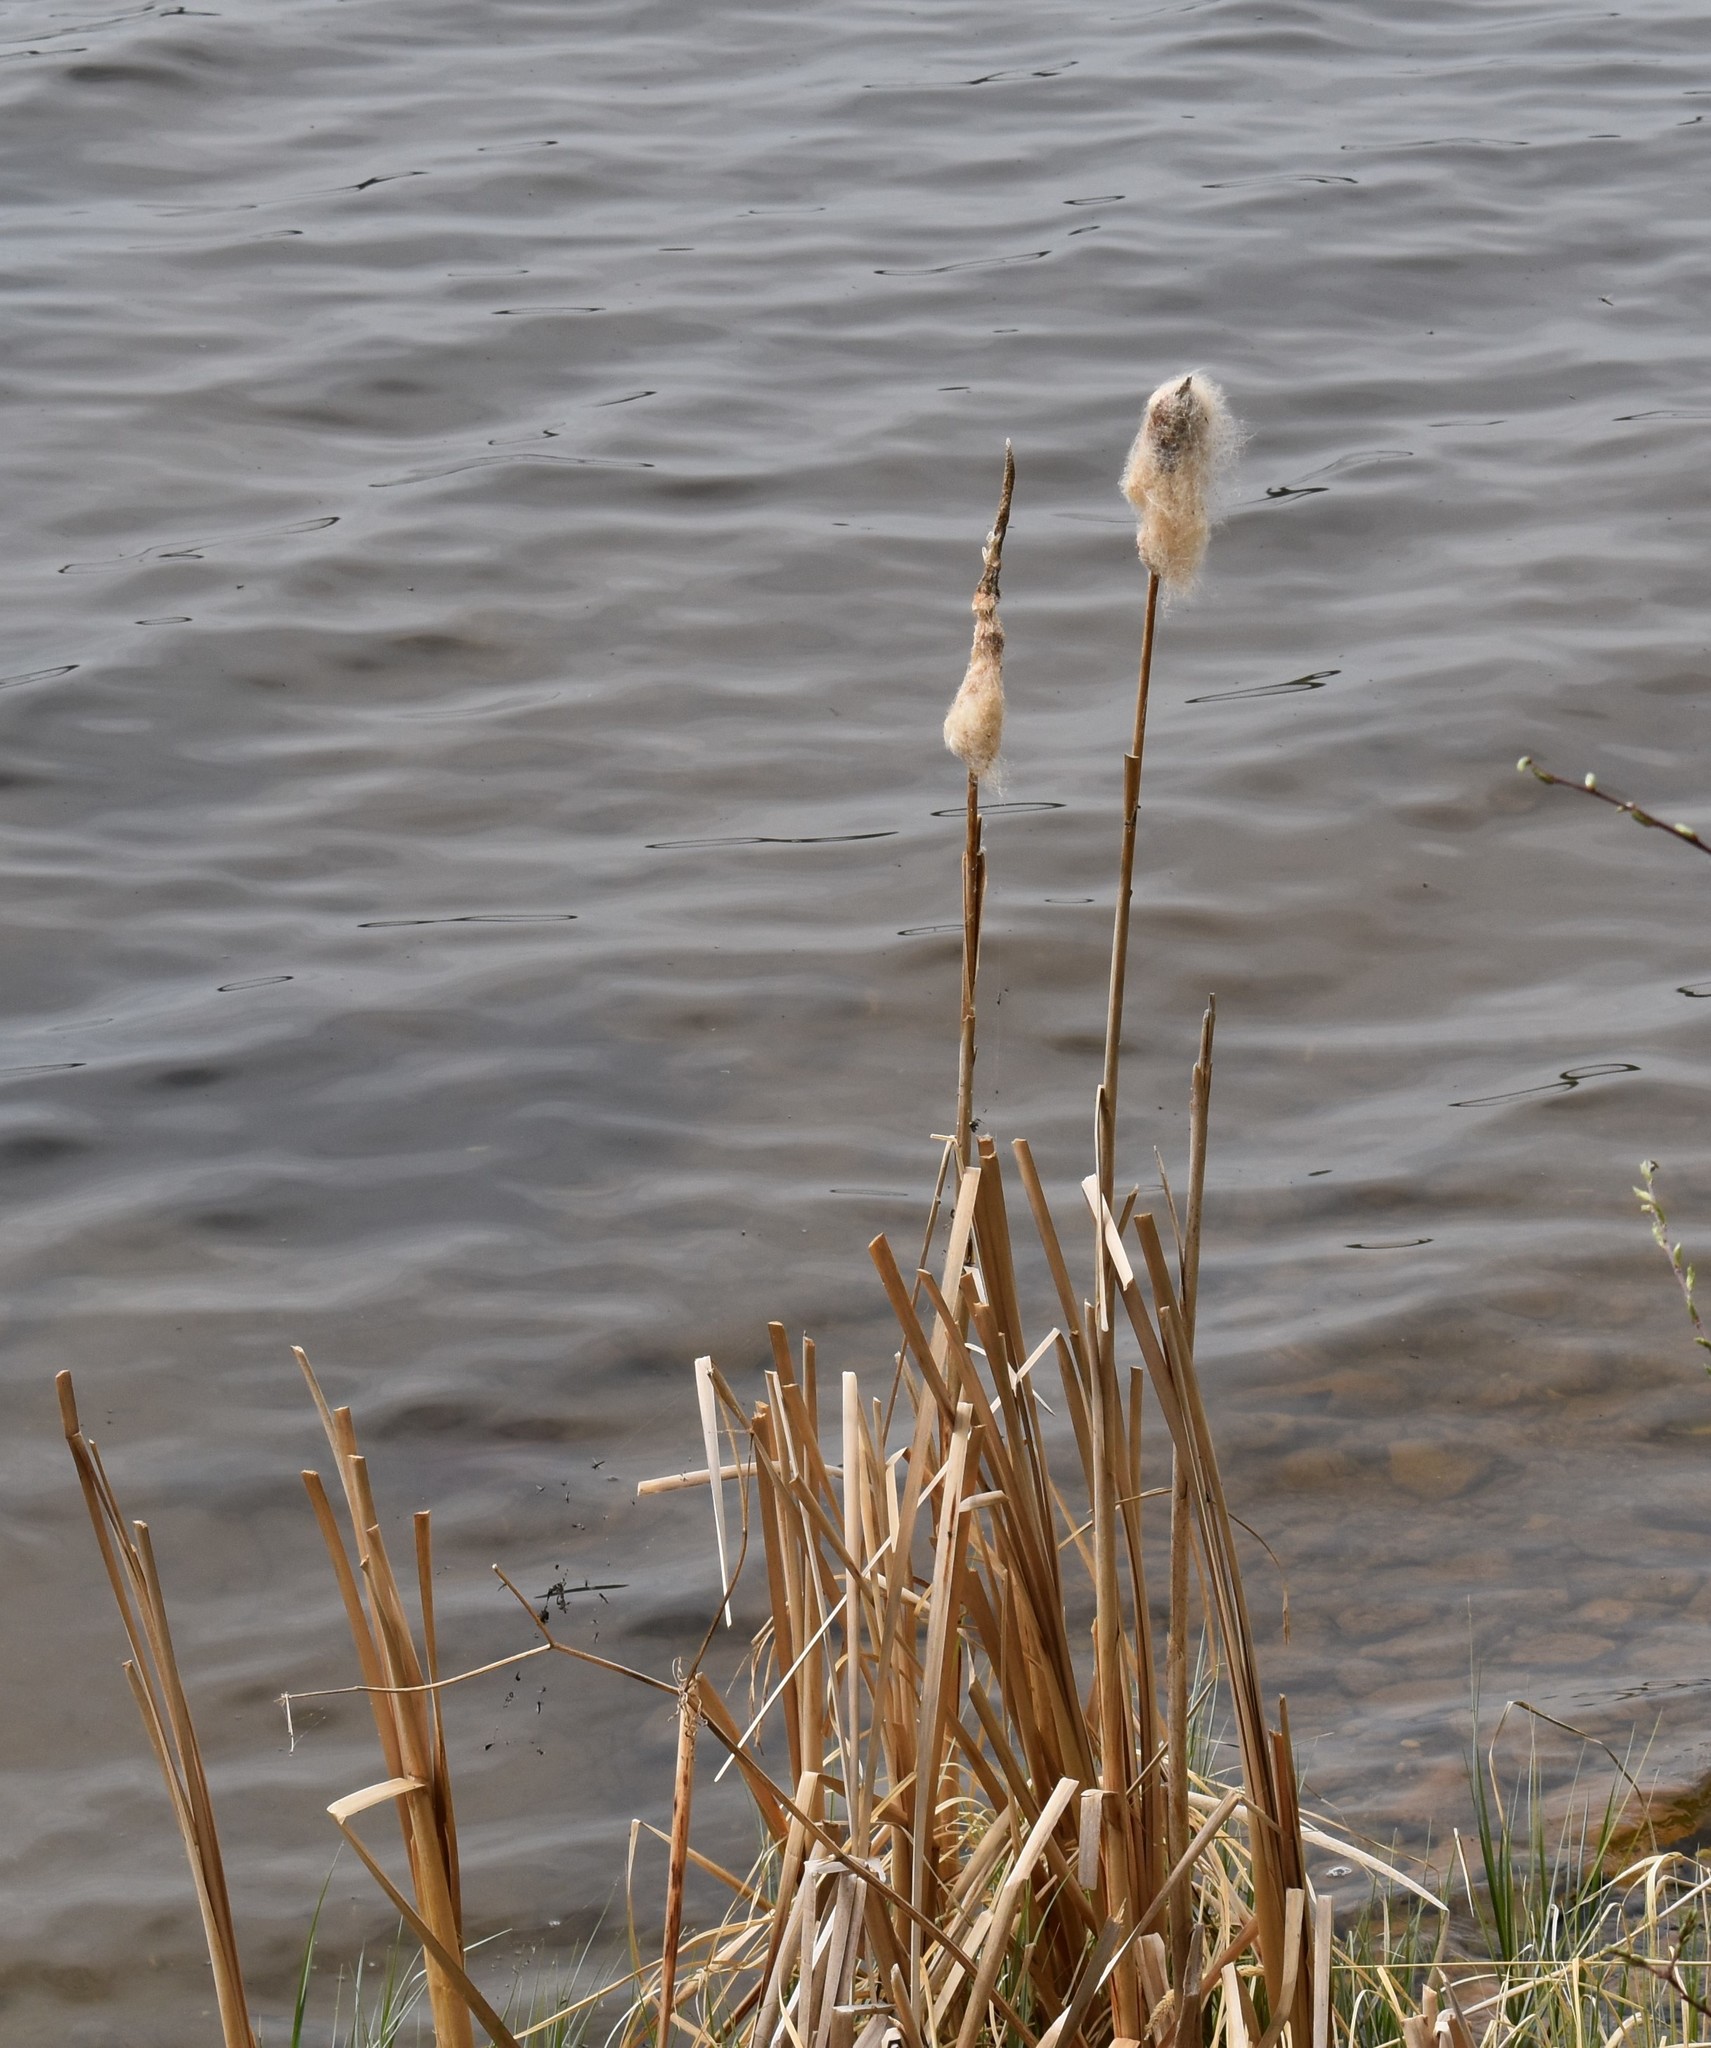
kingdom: Plantae
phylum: Tracheophyta
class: Liliopsida
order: Poales
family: Typhaceae
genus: Typha
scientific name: Typha latifolia
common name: Broadleaf cattail
